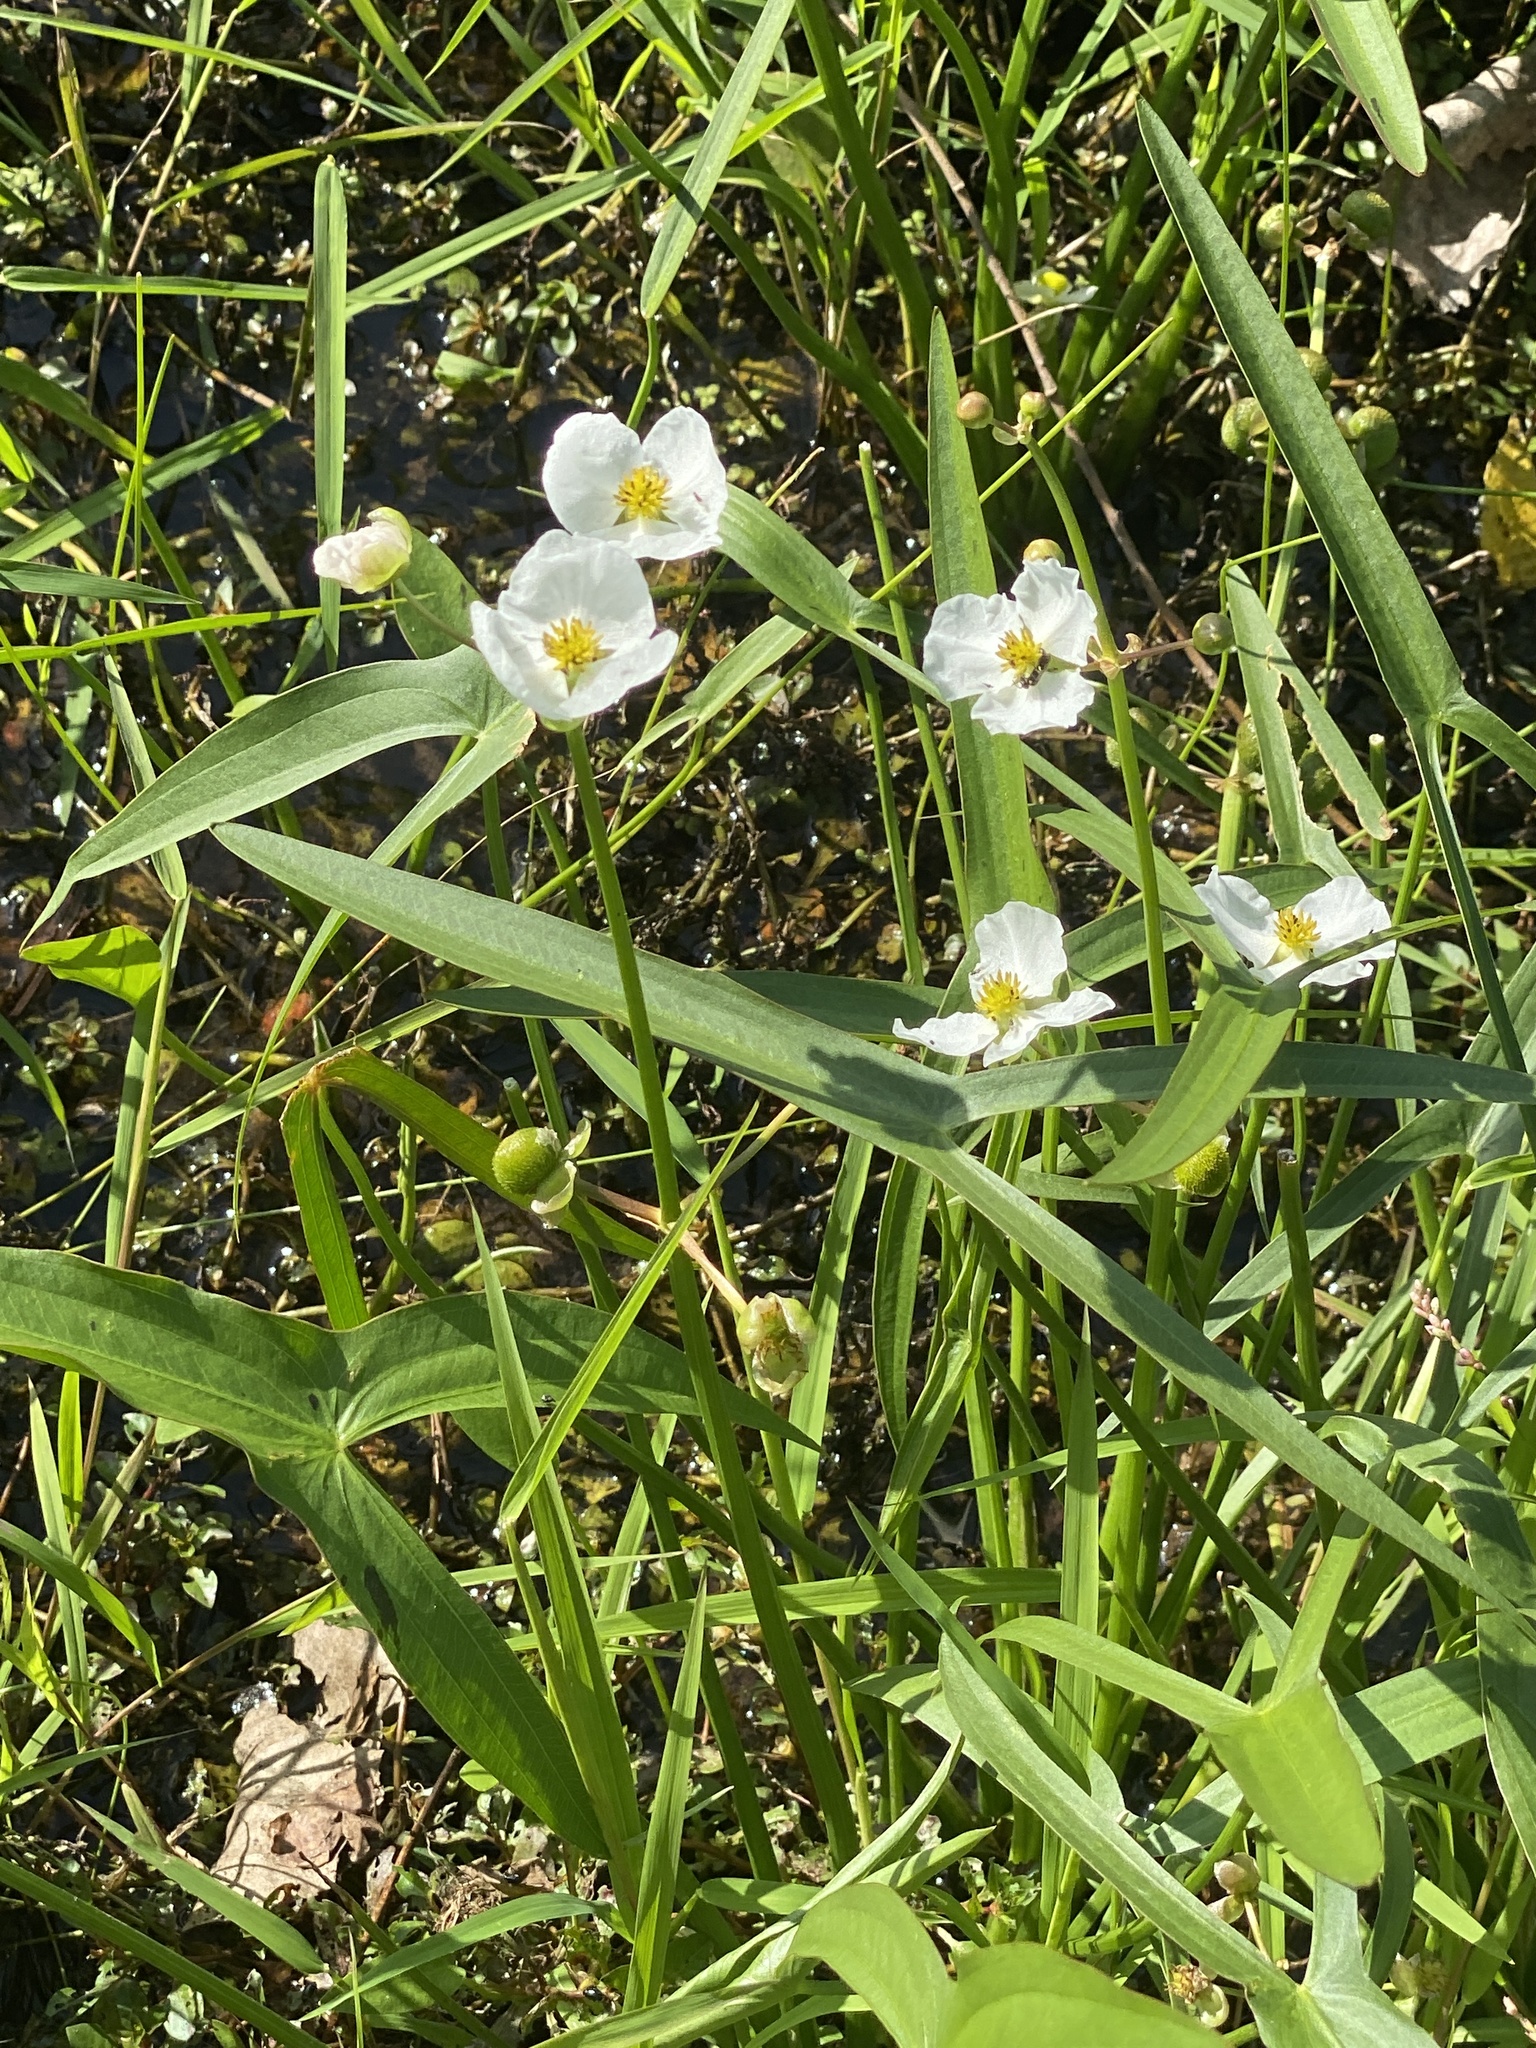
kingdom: Plantae
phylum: Tracheophyta
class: Liliopsida
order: Alismatales
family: Alismataceae
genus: Sagittaria
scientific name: Sagittaria latifolia
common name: Duck-potato
